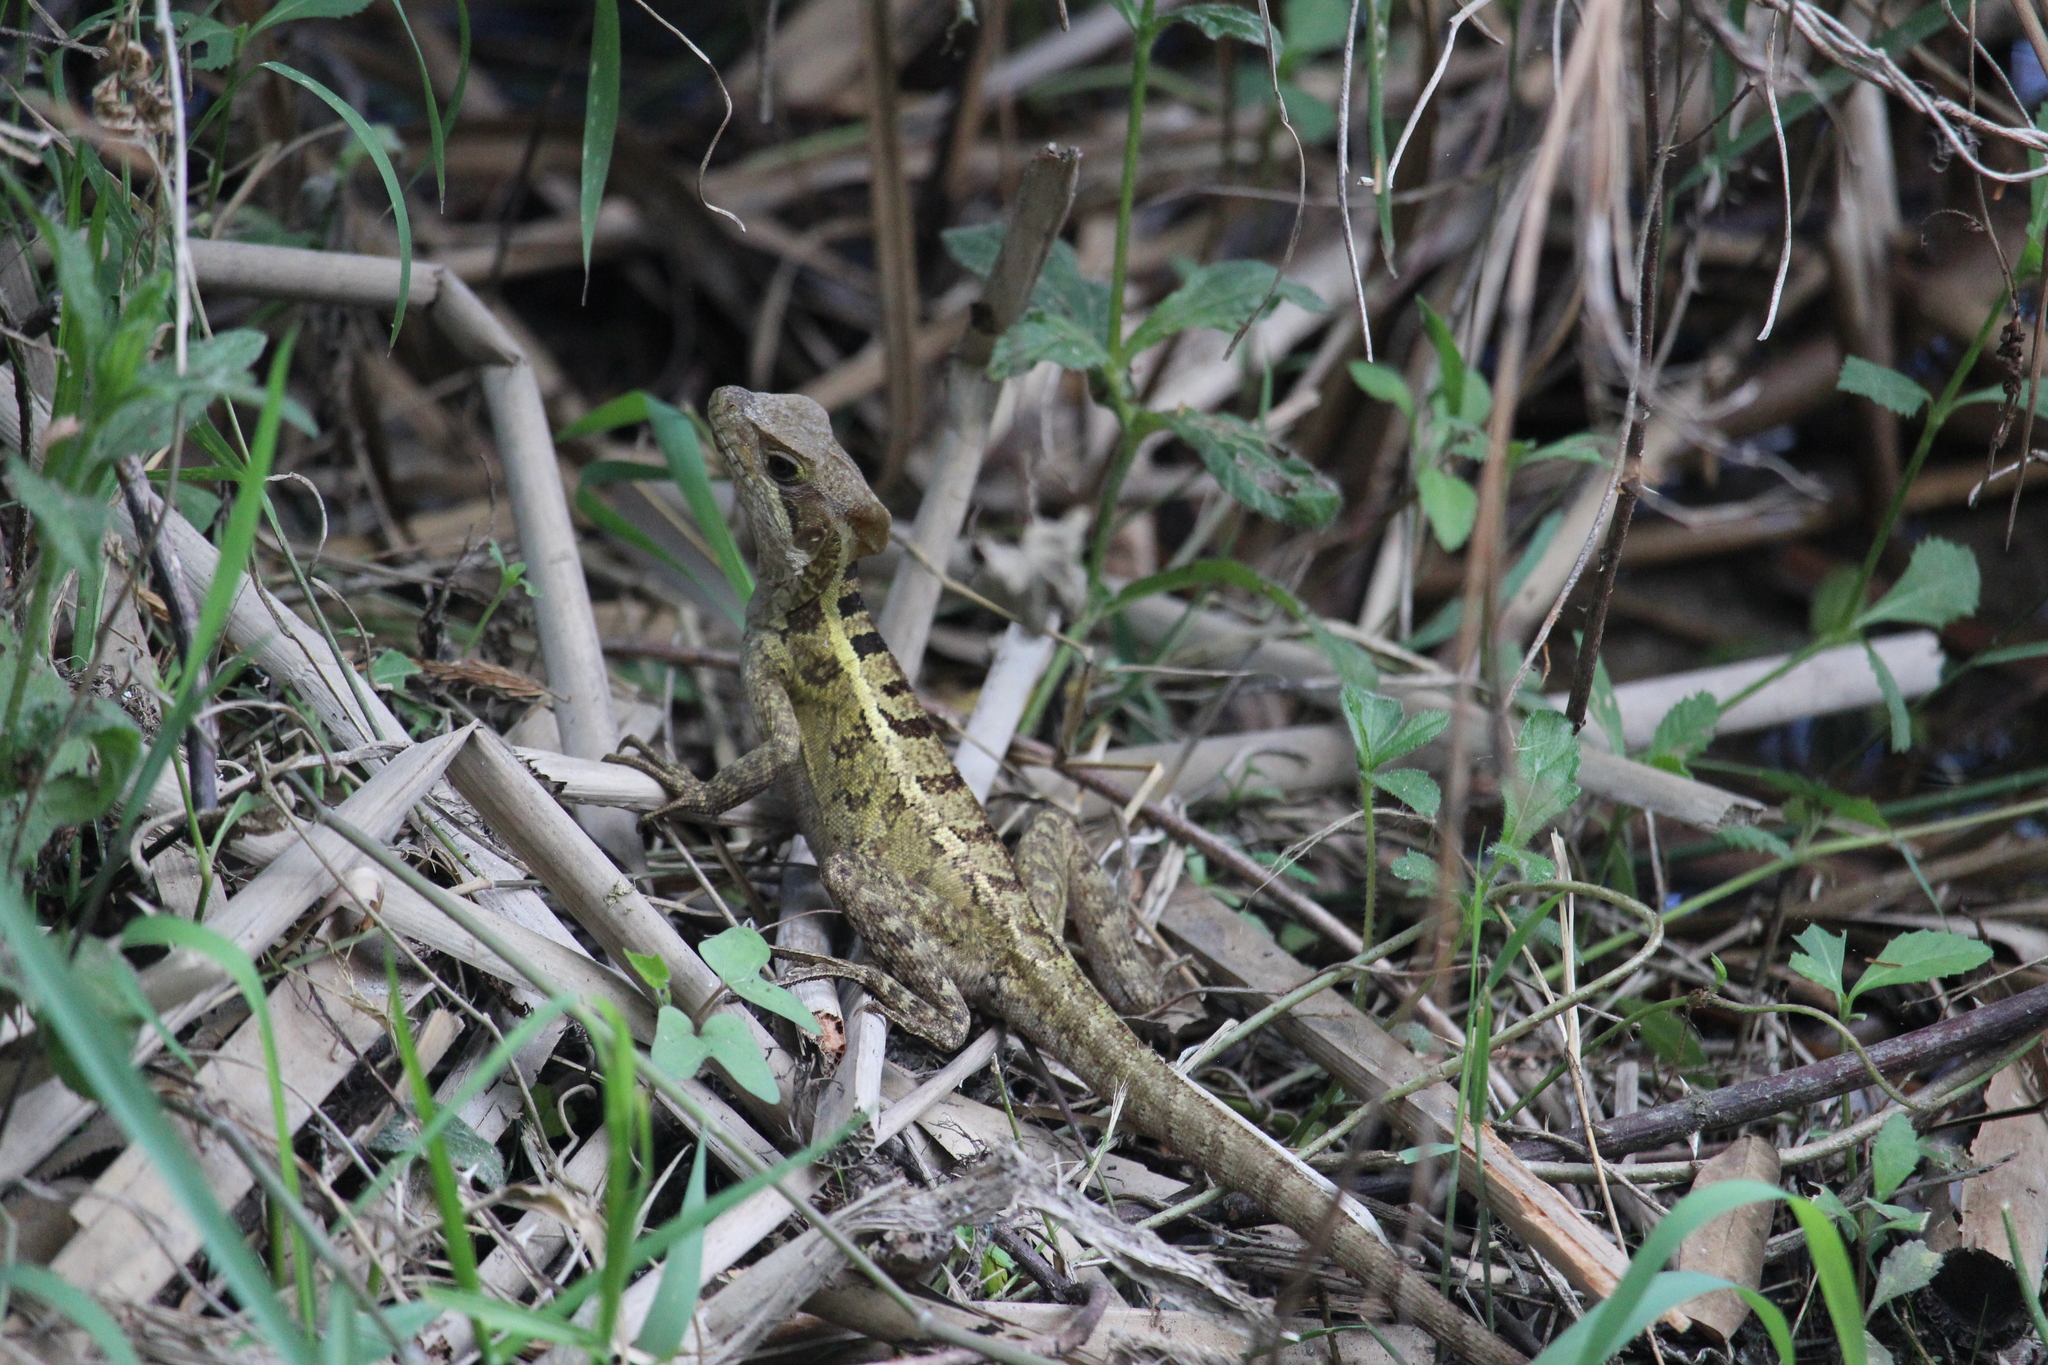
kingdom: Animalia
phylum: Chordata
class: Squamata
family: Corytophanidae
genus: Basiliscus
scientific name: Basiliscus vittatus
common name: Brown basilisk
